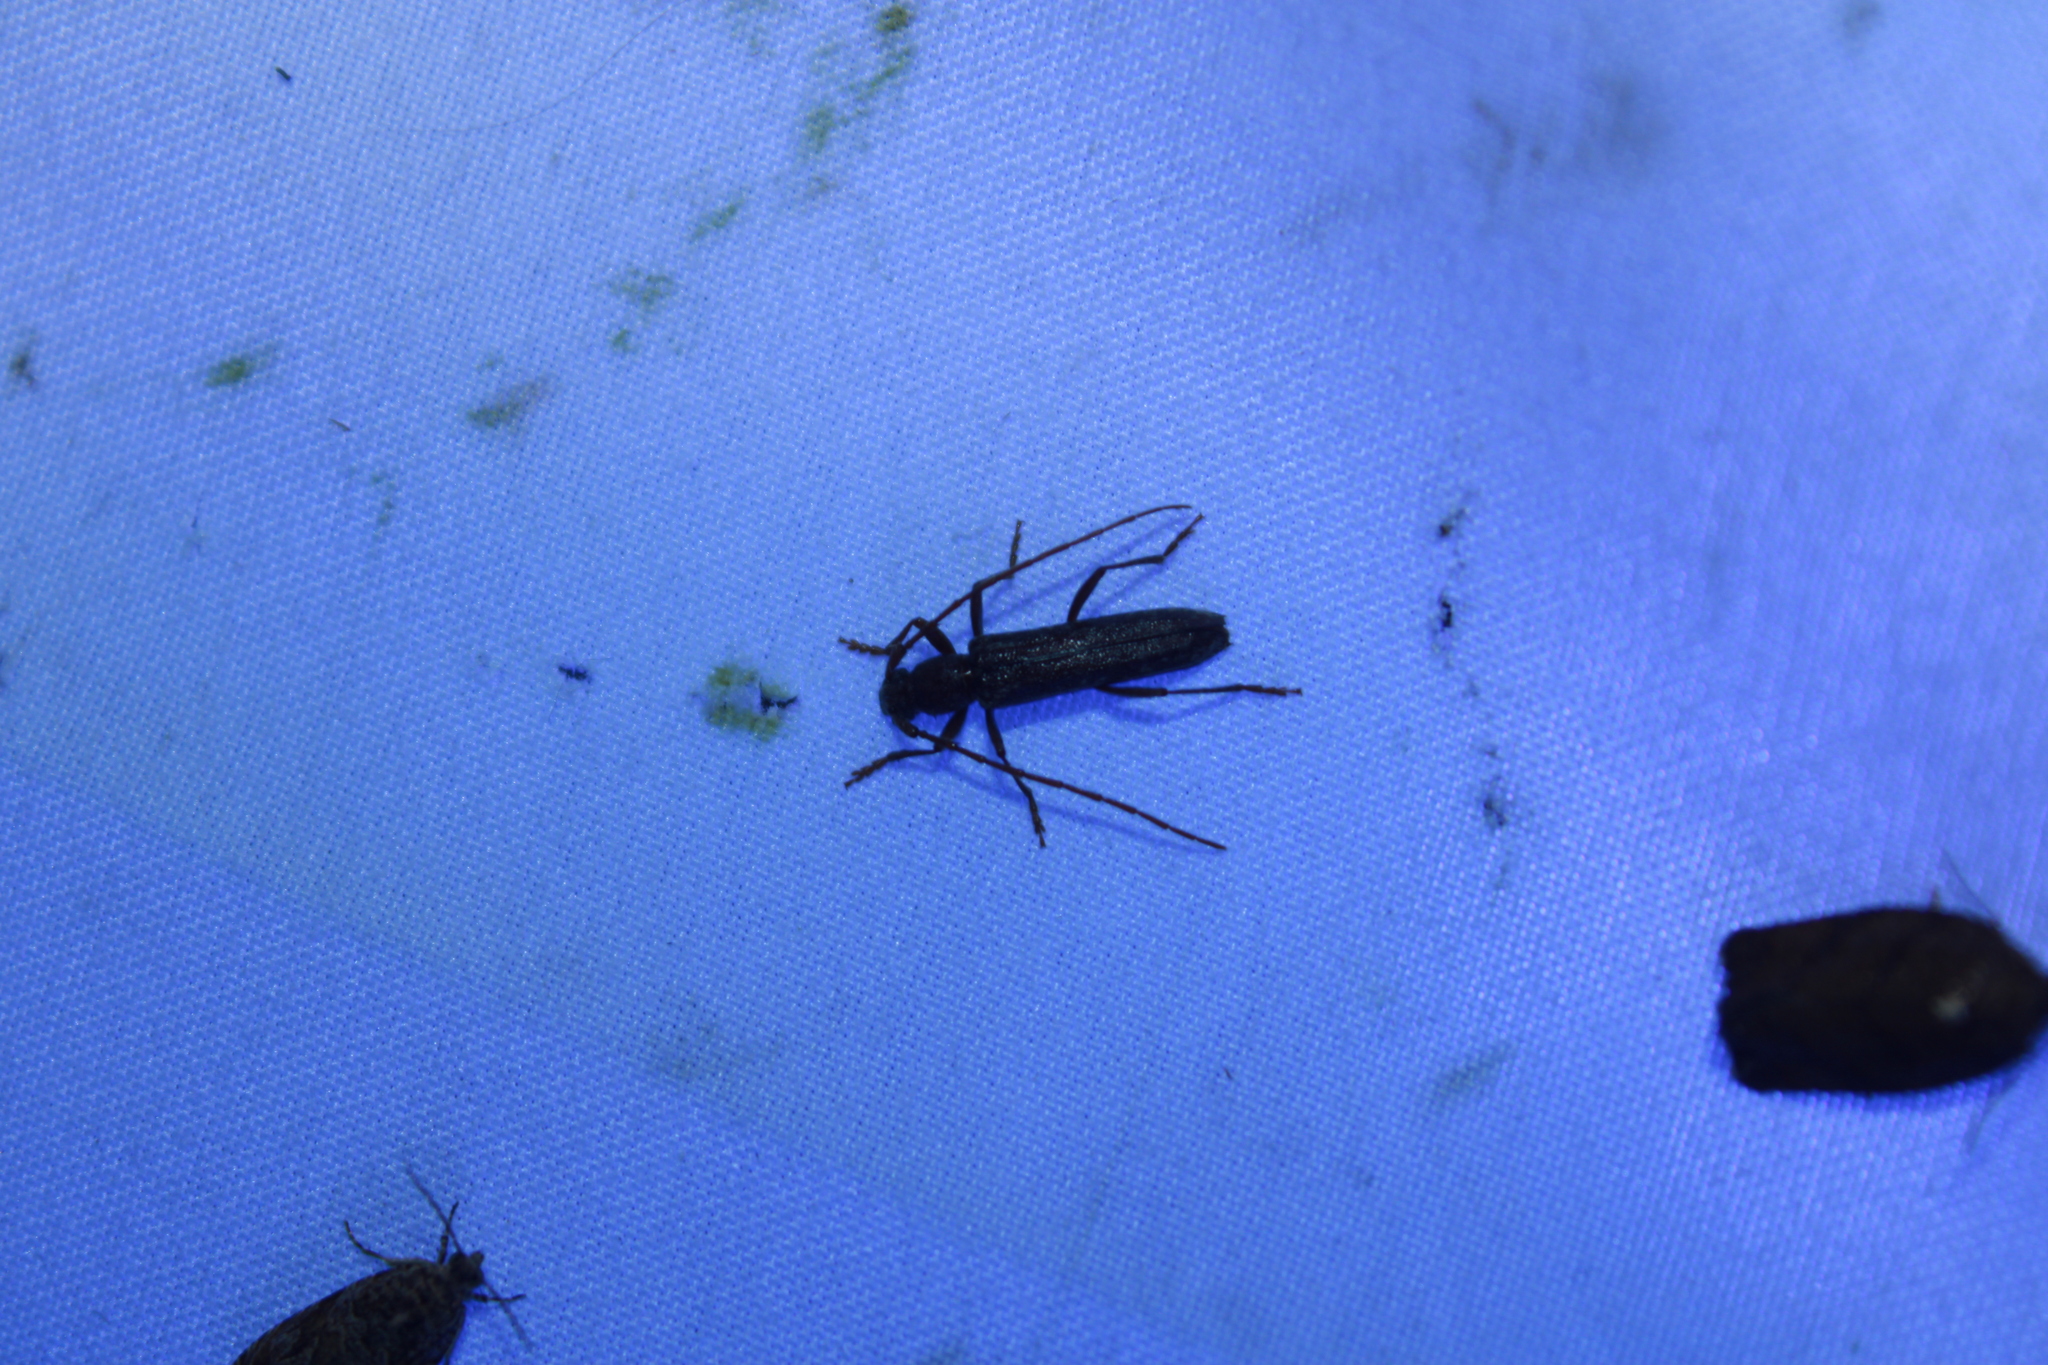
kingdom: Animalia
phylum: Arthropoda
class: Insecta
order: Coleoptera
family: Cerambycidae
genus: Anelaphus
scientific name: Anelaphus villosus
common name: Twig pruner
